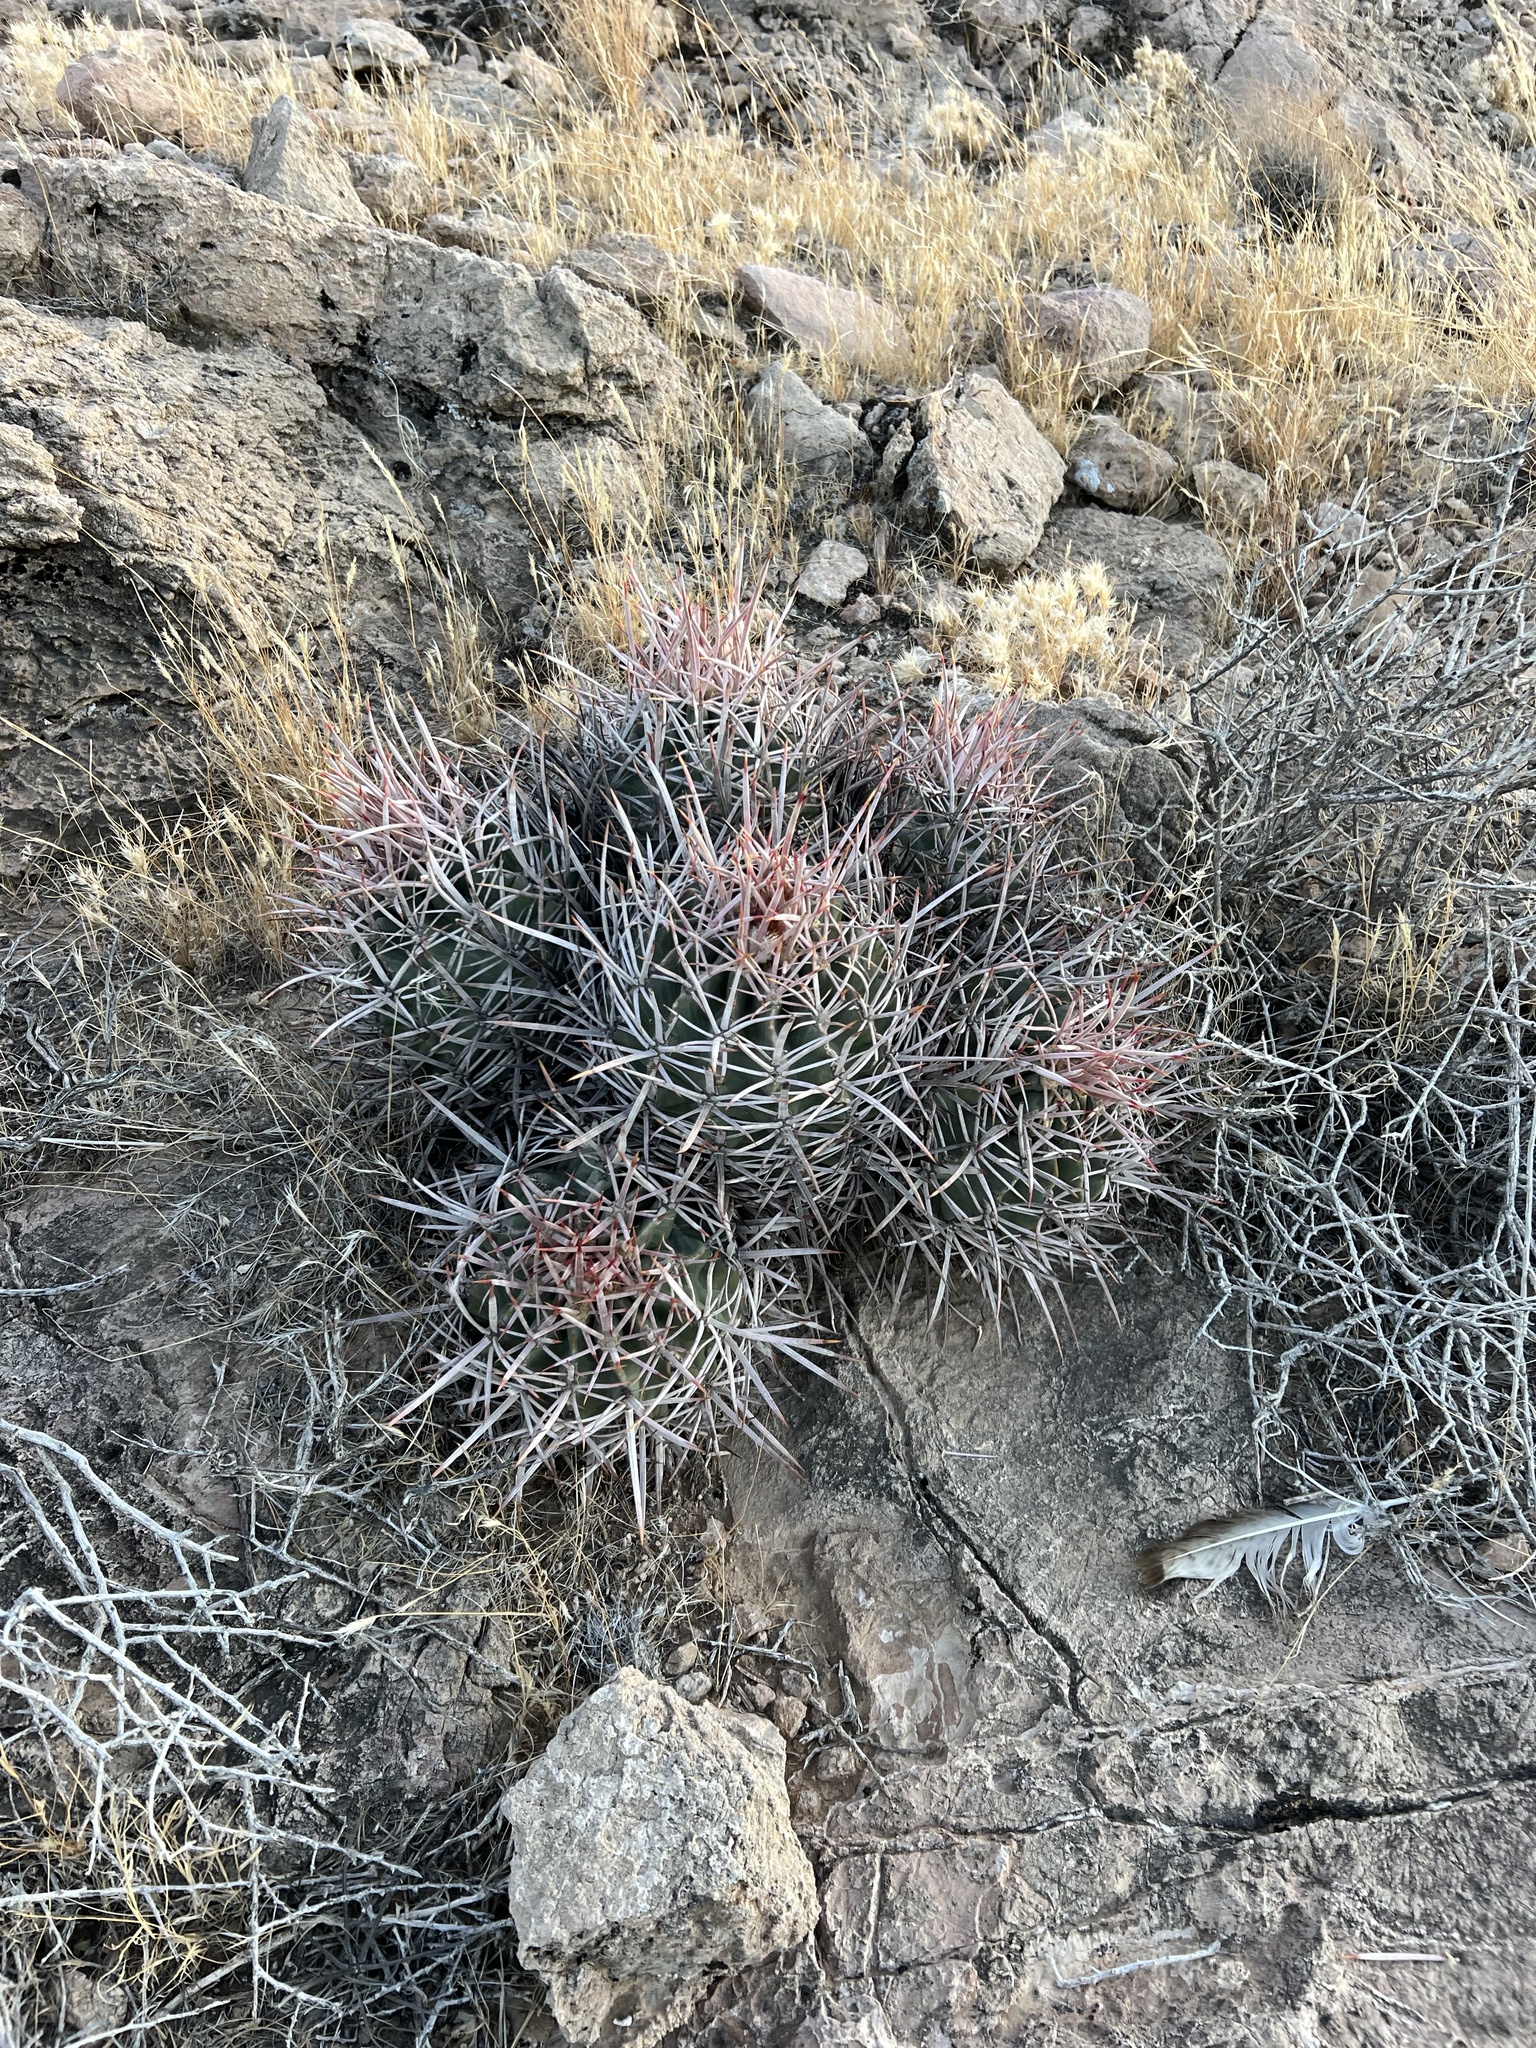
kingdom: Plantae
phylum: Tracheophyta
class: Magnoliopsida
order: Caryophyllales
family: Cactaceae
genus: Echinocactus
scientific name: Echinocactus polycephalus
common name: Cottontop cactus
